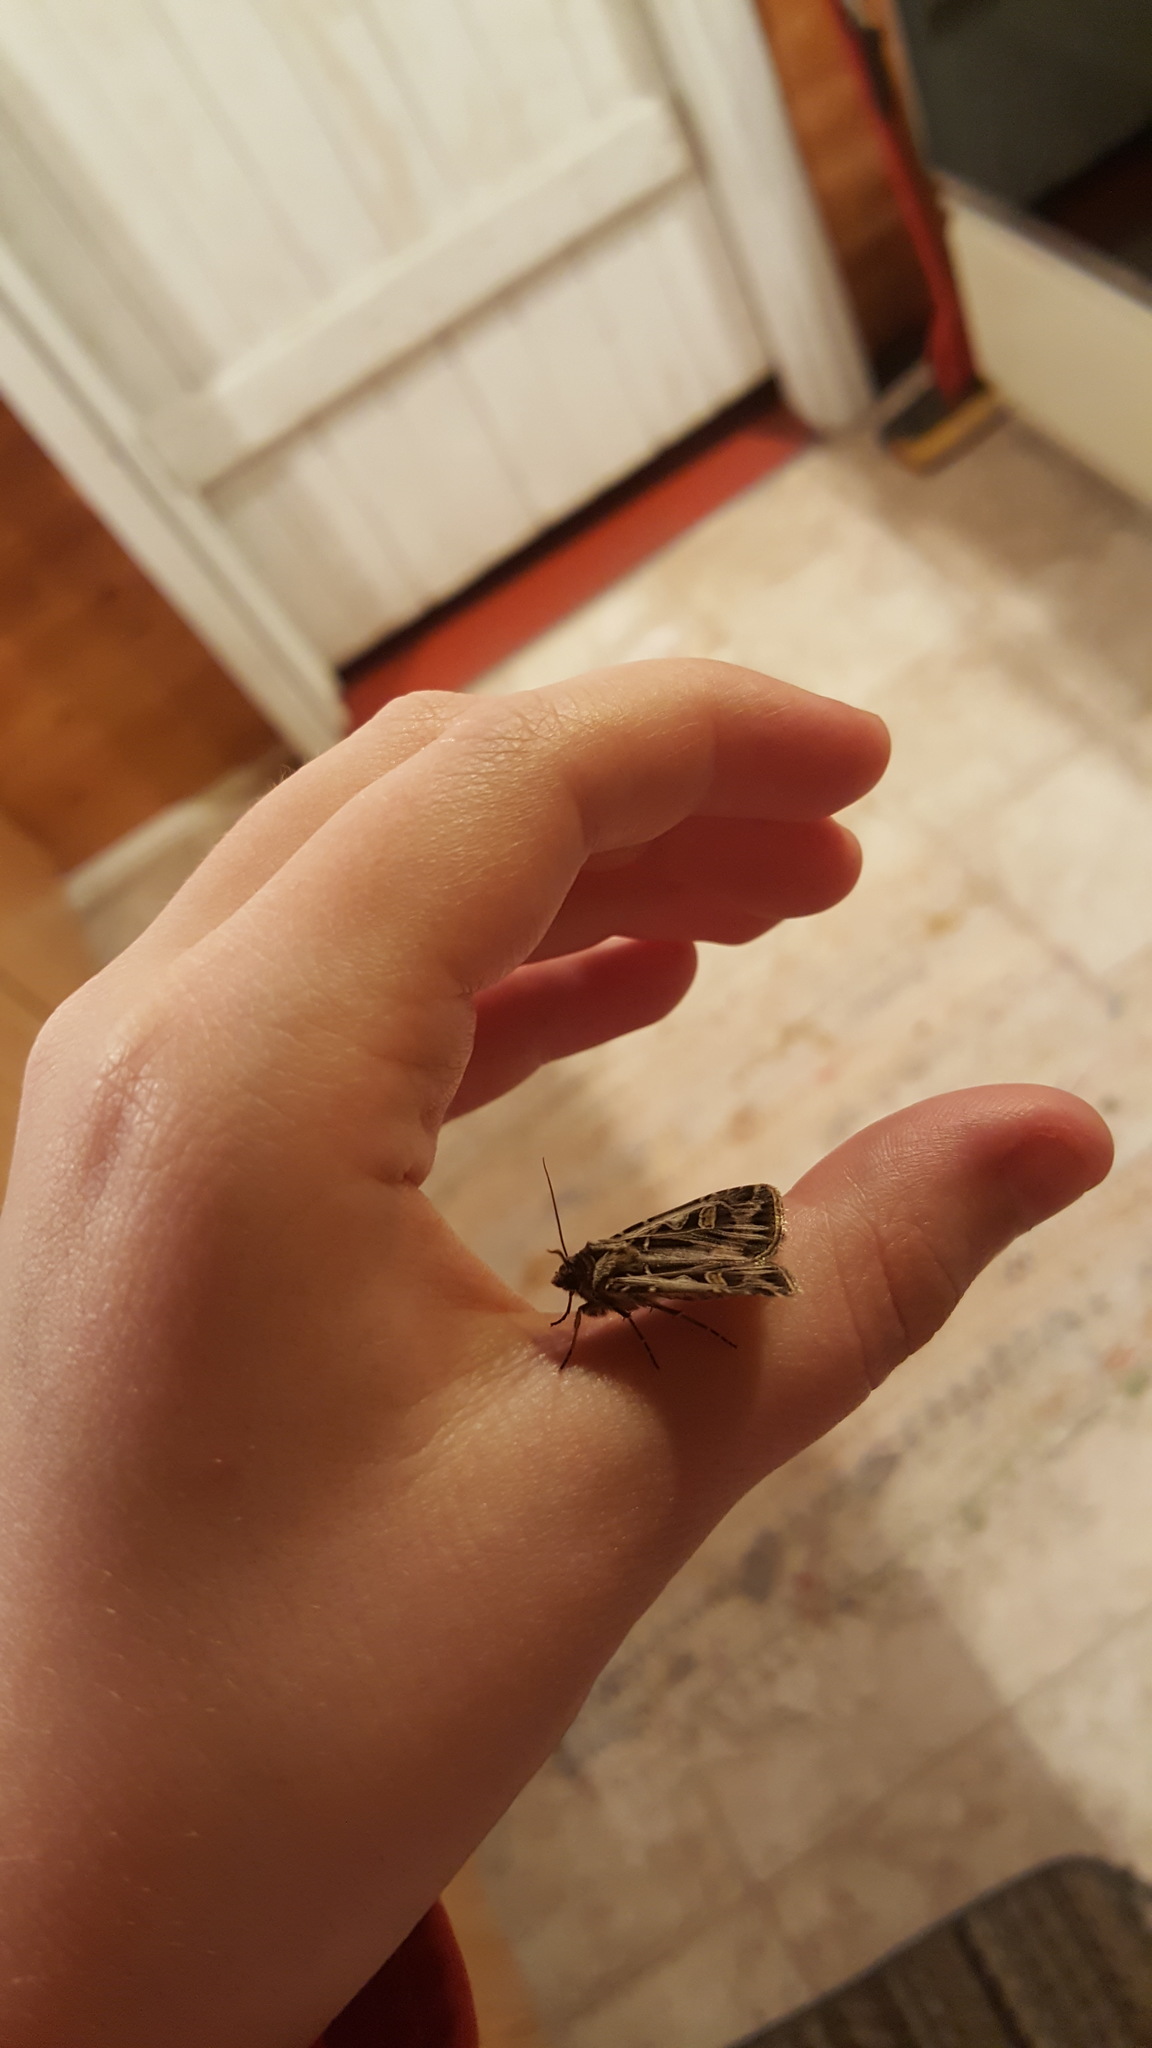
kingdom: Animalia
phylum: Arthropoda
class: Insecta
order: Lepidoptera
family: Noctuidae
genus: Feltia
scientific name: Feltia jaculifera
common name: Dingy cutworm moth
